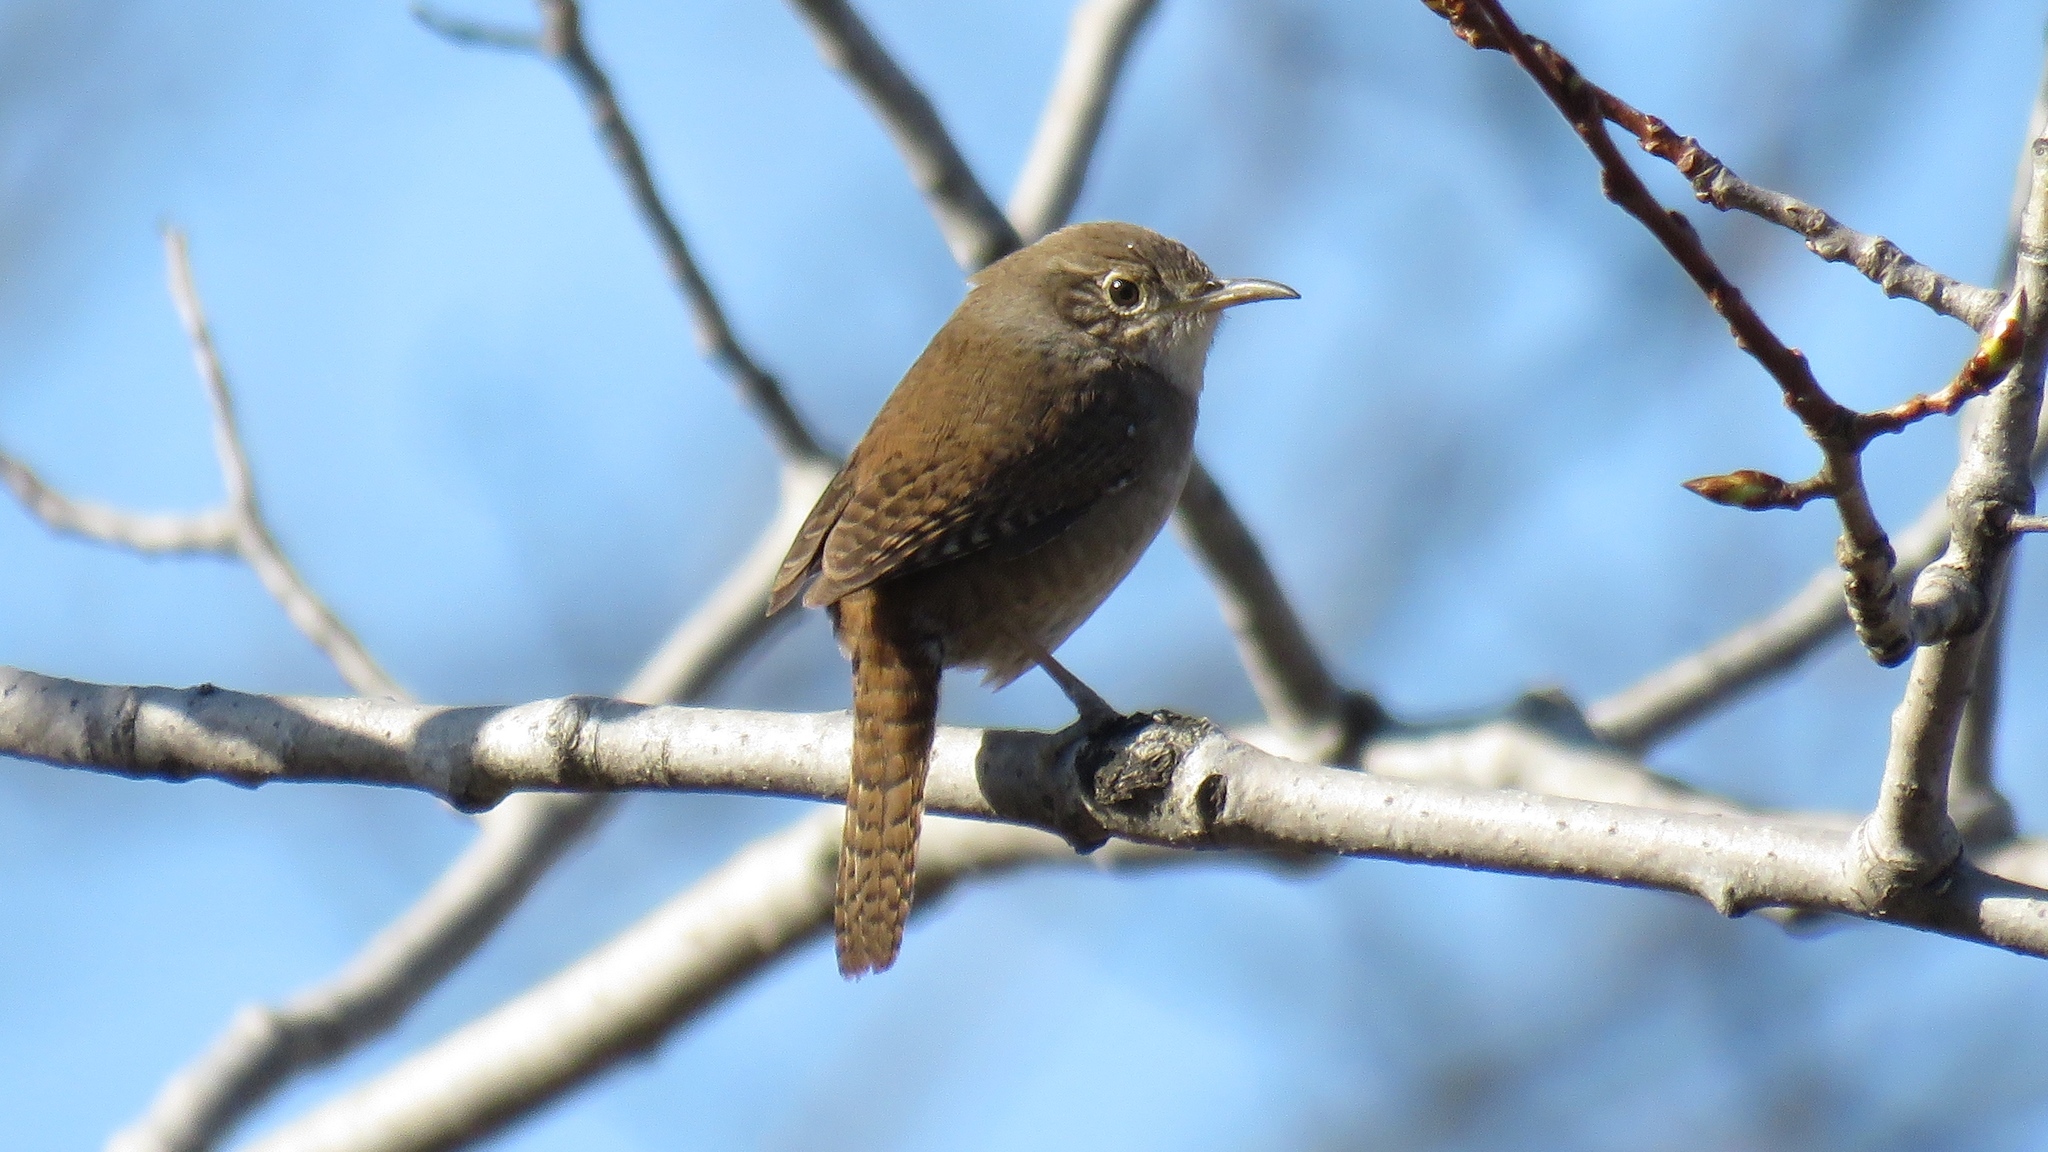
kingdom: Animalia
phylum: Chordata
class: Aves
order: Passeriformes
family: Troglodytidae
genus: Troglodytes
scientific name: Troglodytes aedon
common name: House wren
